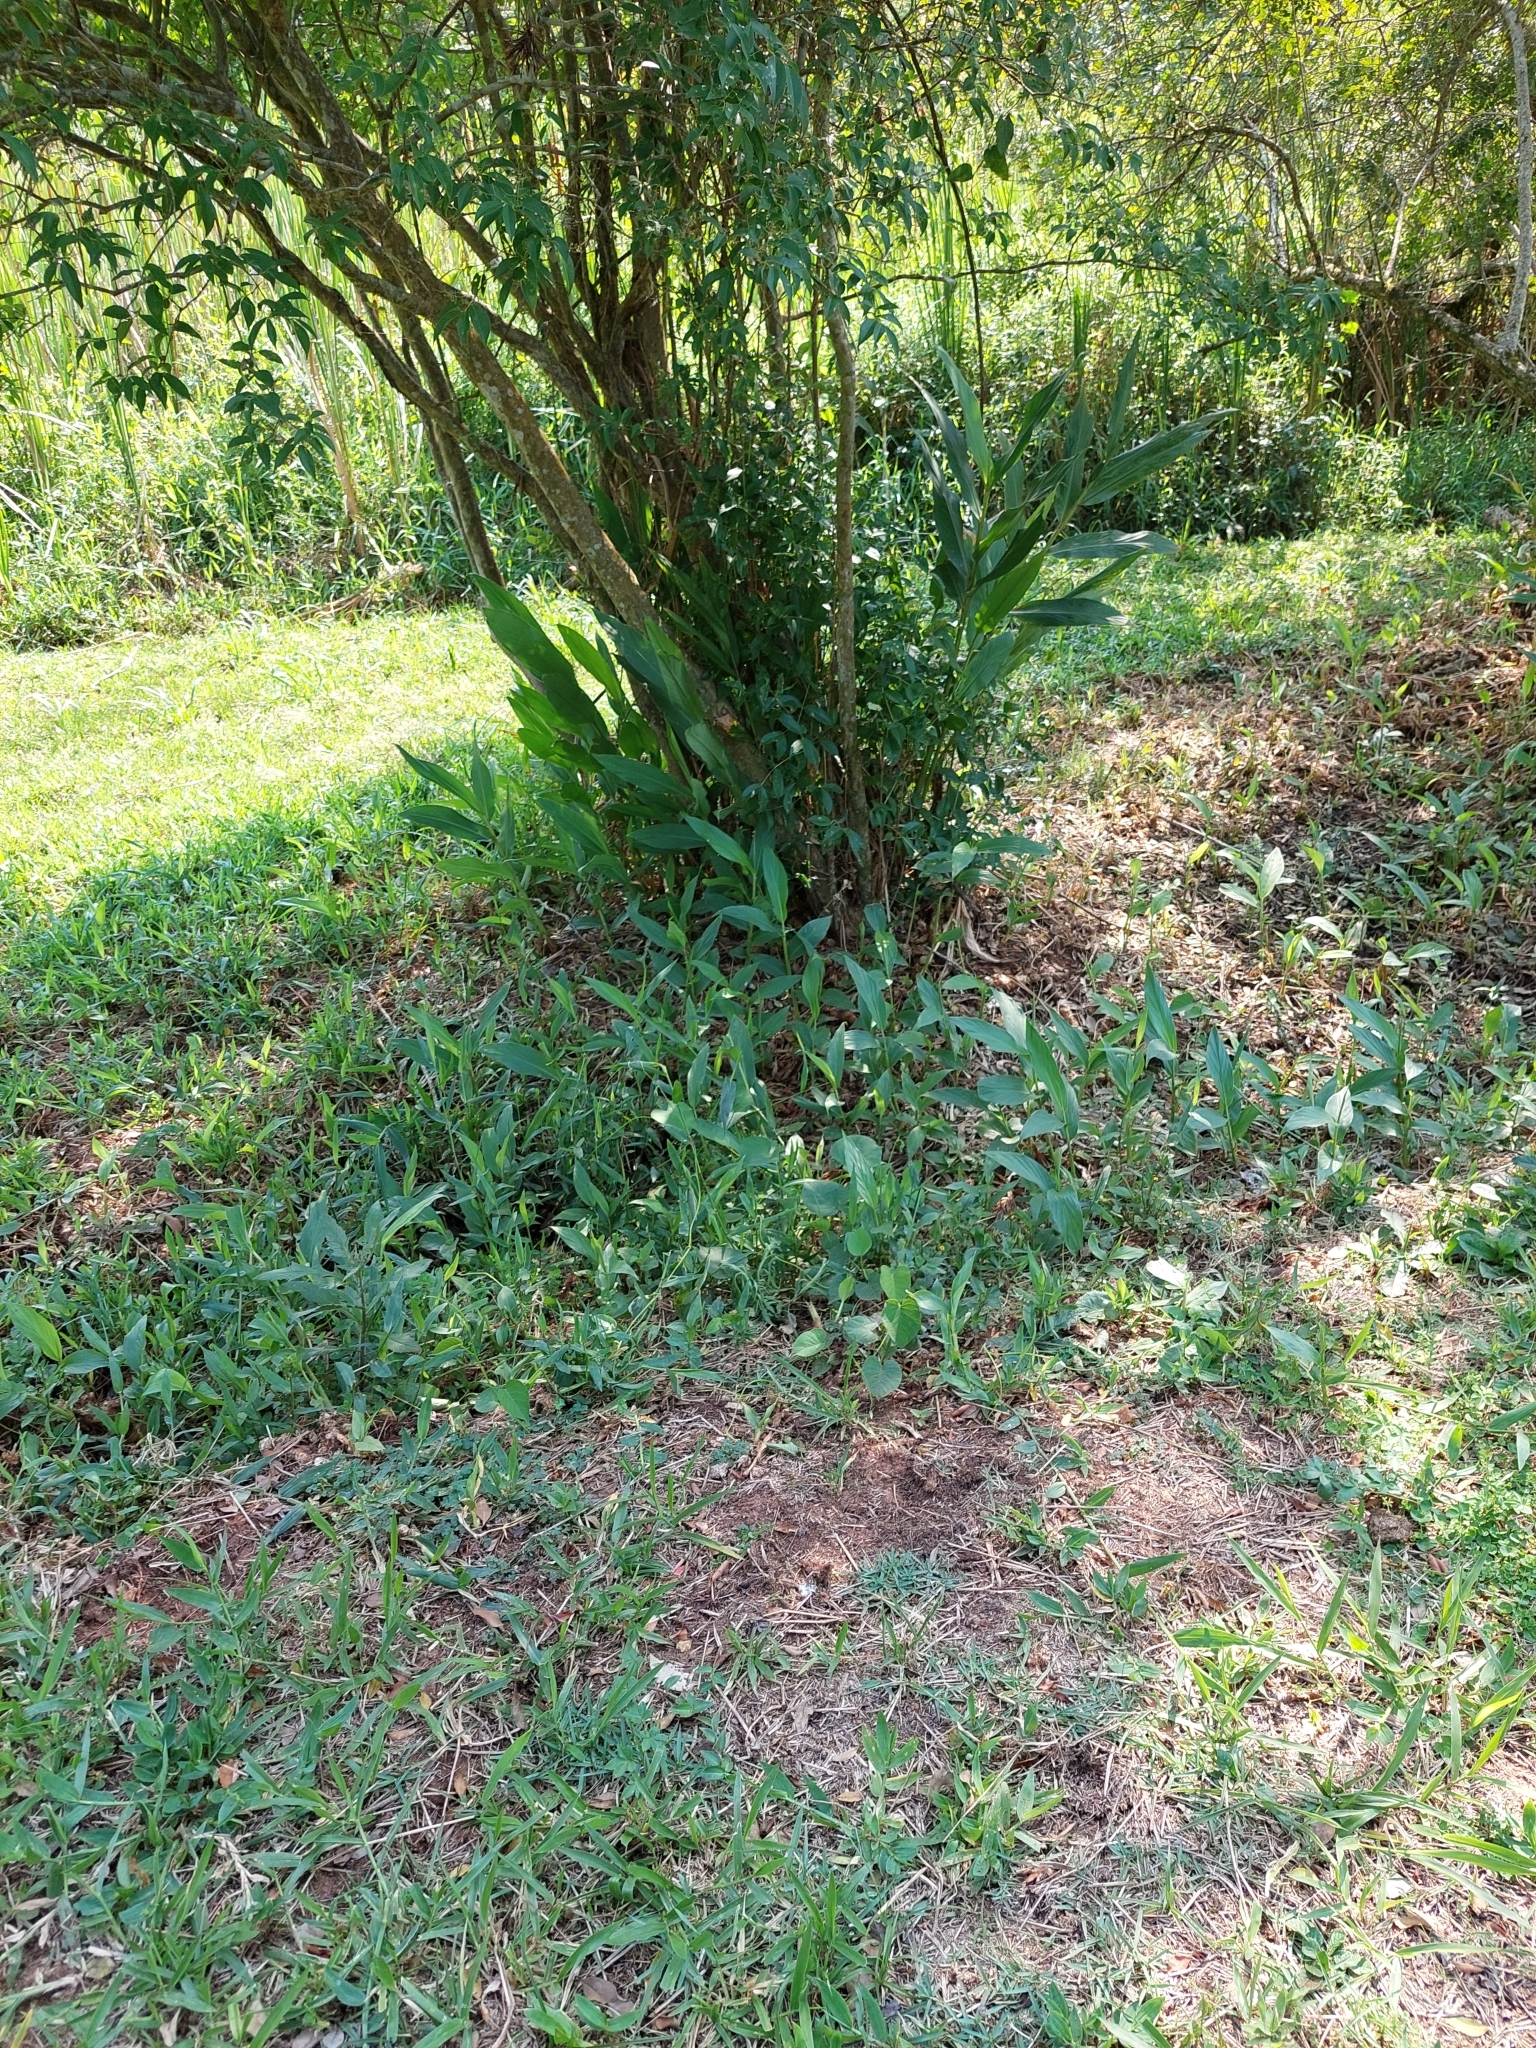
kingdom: Plantae
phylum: Tracheophyta
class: Liliopsida
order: Zingiberales
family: Zingiberaceae
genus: Hedychium
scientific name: Hedychium coronarium
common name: White garland-lily
